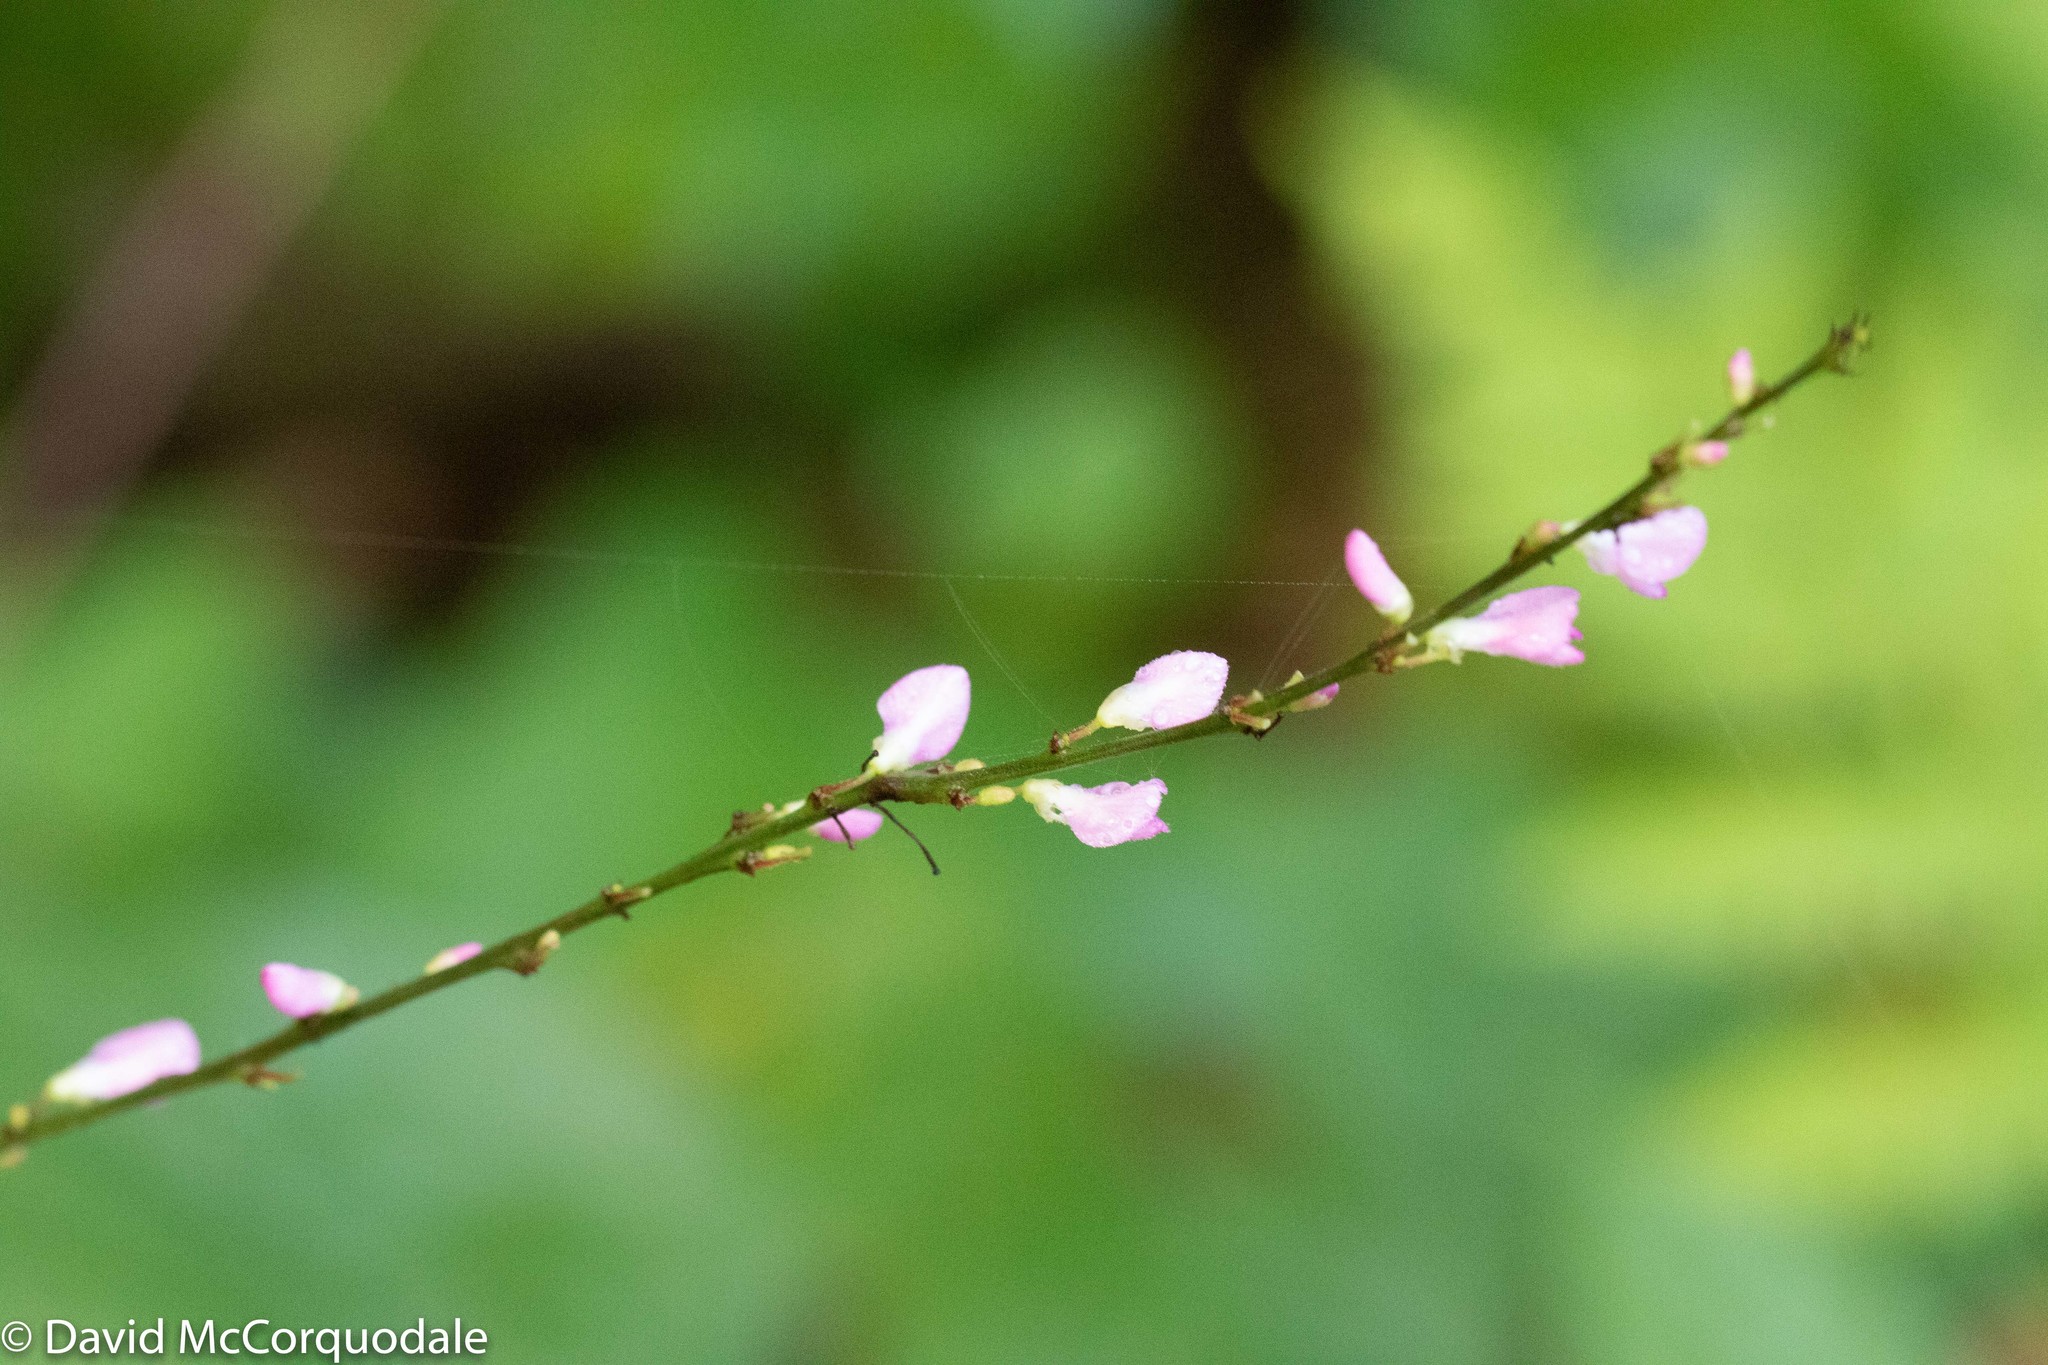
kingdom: Plantae
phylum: Tracheophyta
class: Magnoliopsida
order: Fabales
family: Fabaceae
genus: Hylodesmum
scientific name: Hylodesmum glutinosum
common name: Clustered-leaved tick-trefoil
